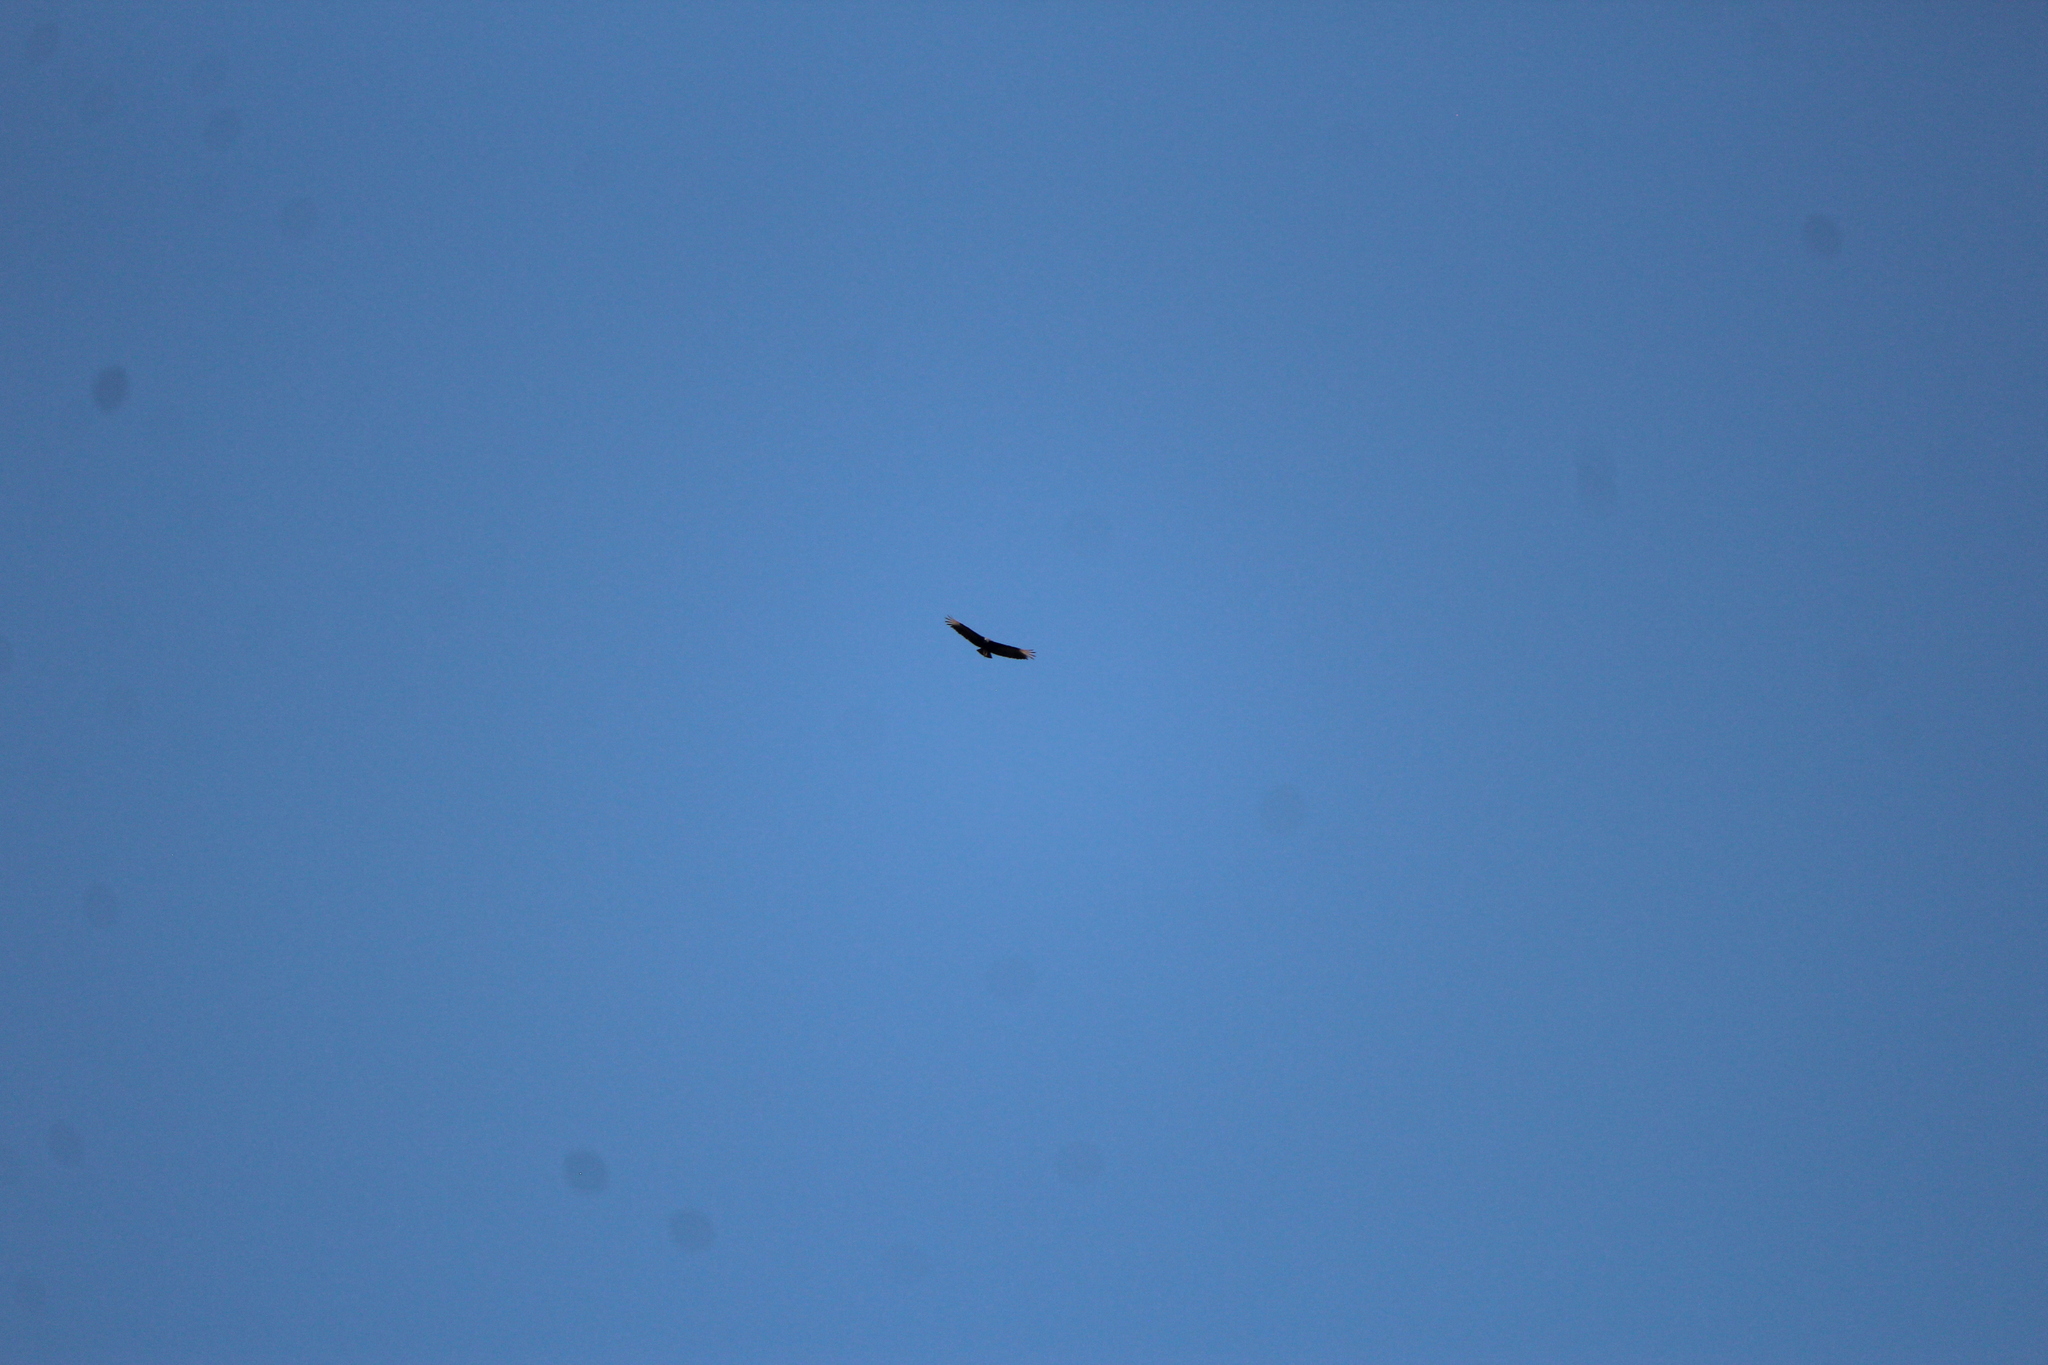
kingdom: Animalia
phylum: Chordata
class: Aves
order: Accipitriformes
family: Cathartidae
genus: Coragyps
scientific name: Coragyps atratus
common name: Black vulture
